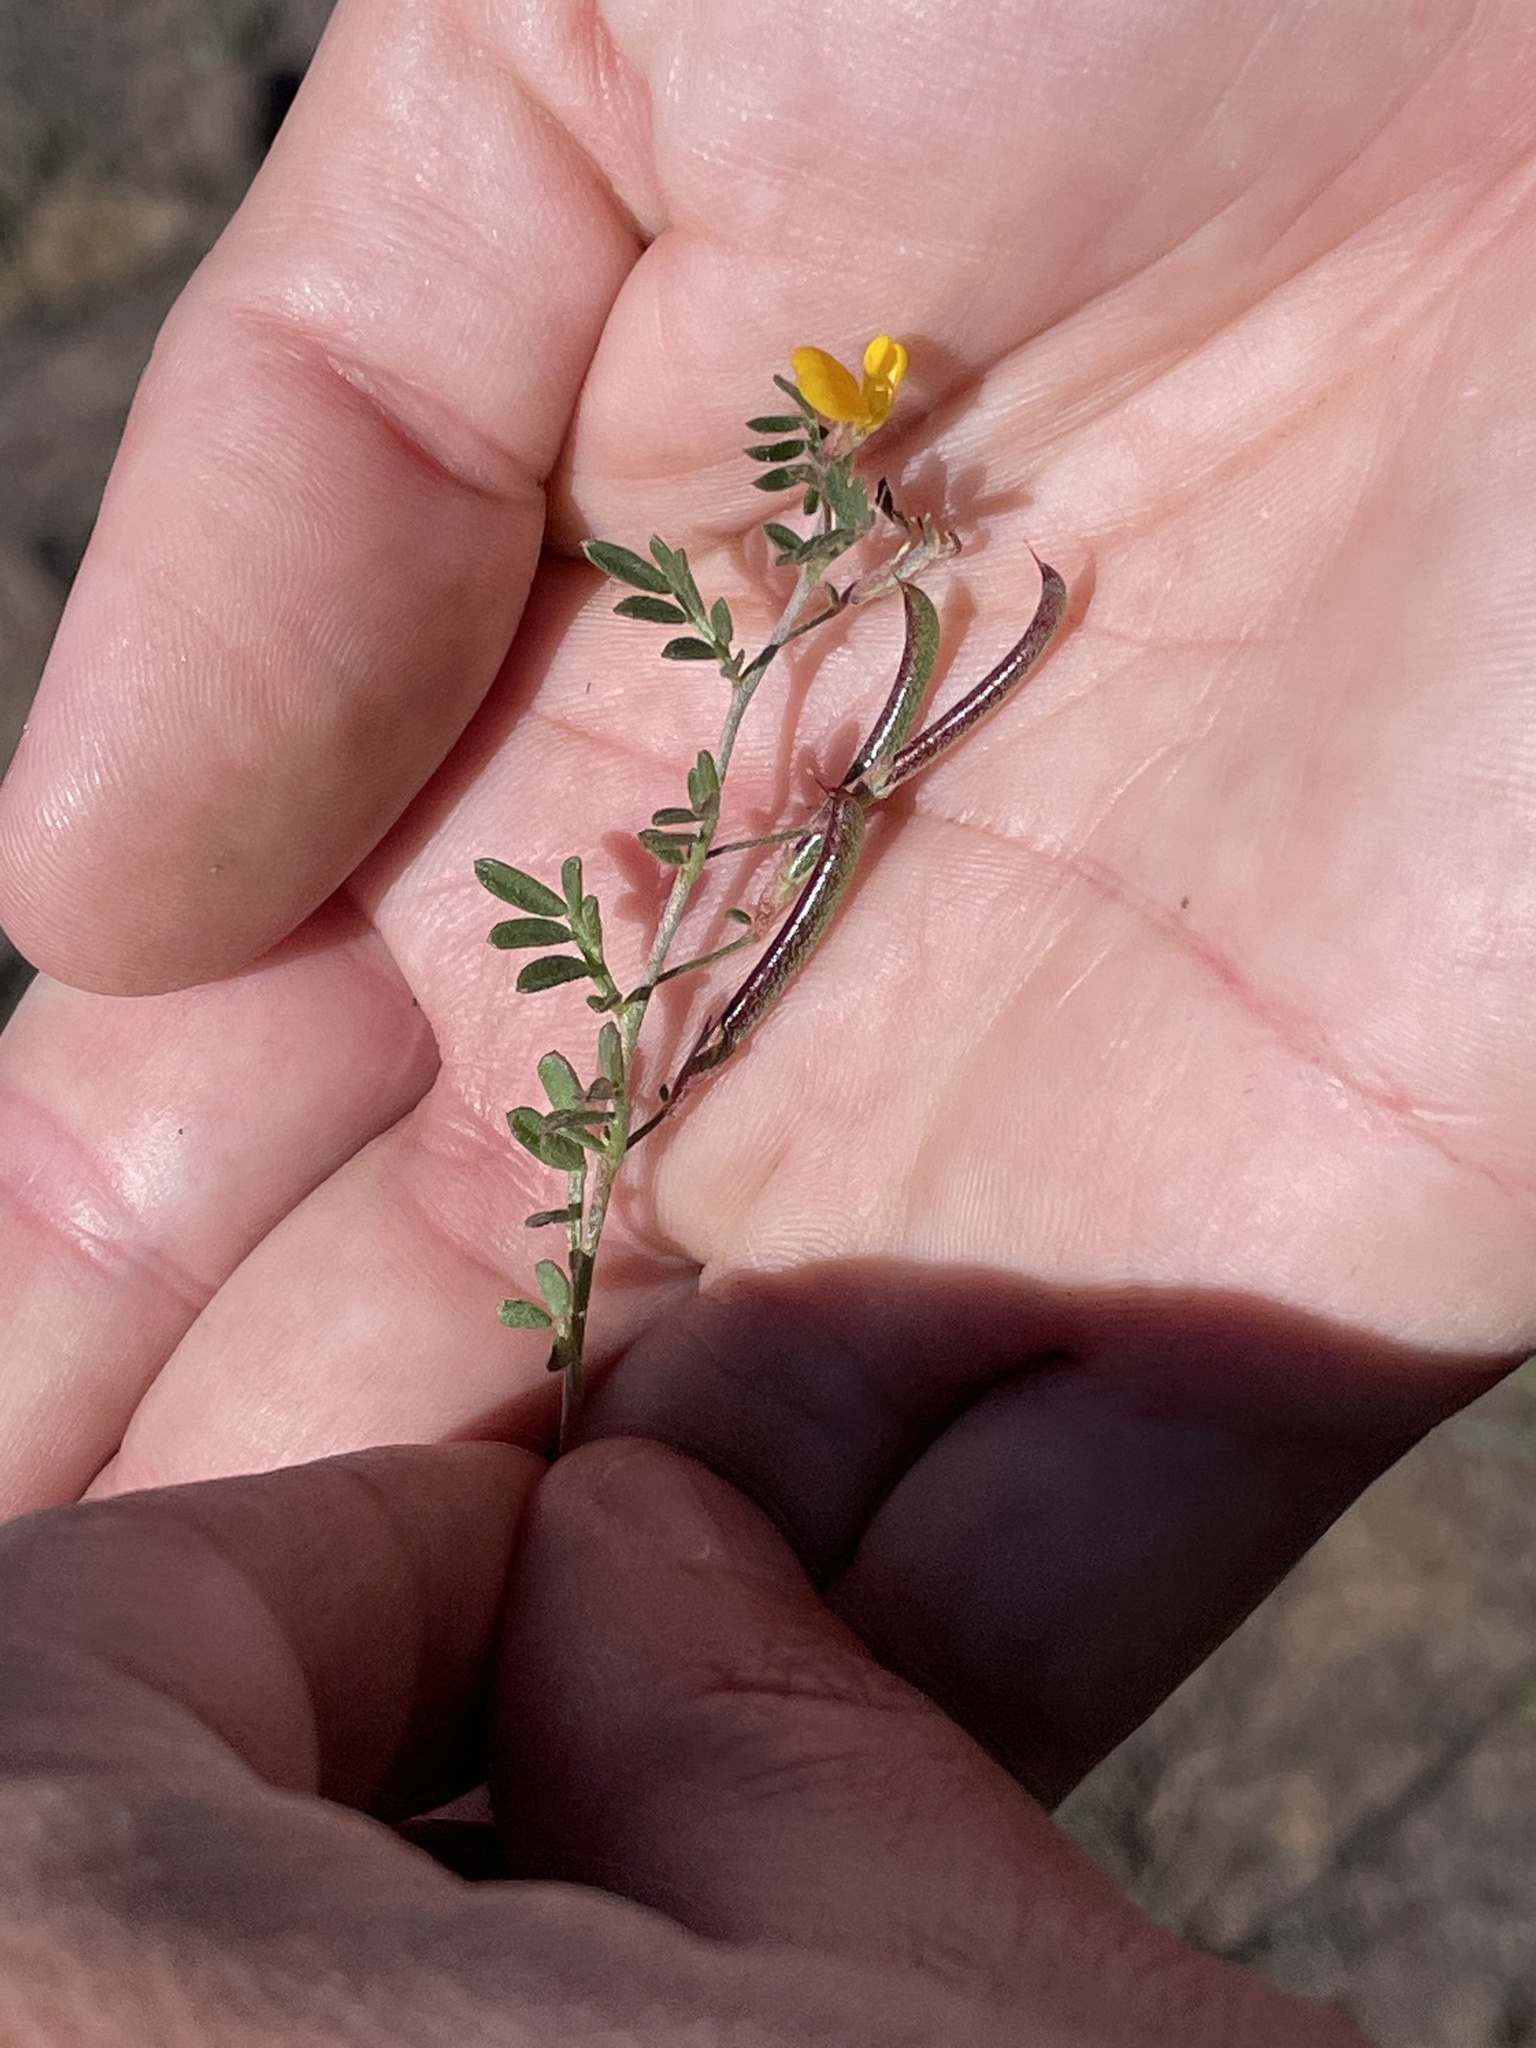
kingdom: Plantae
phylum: Tracheophyta
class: Magnoliopsida
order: Fabales
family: Fabaceae
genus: Acmispon
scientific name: Acmispon strigosus
